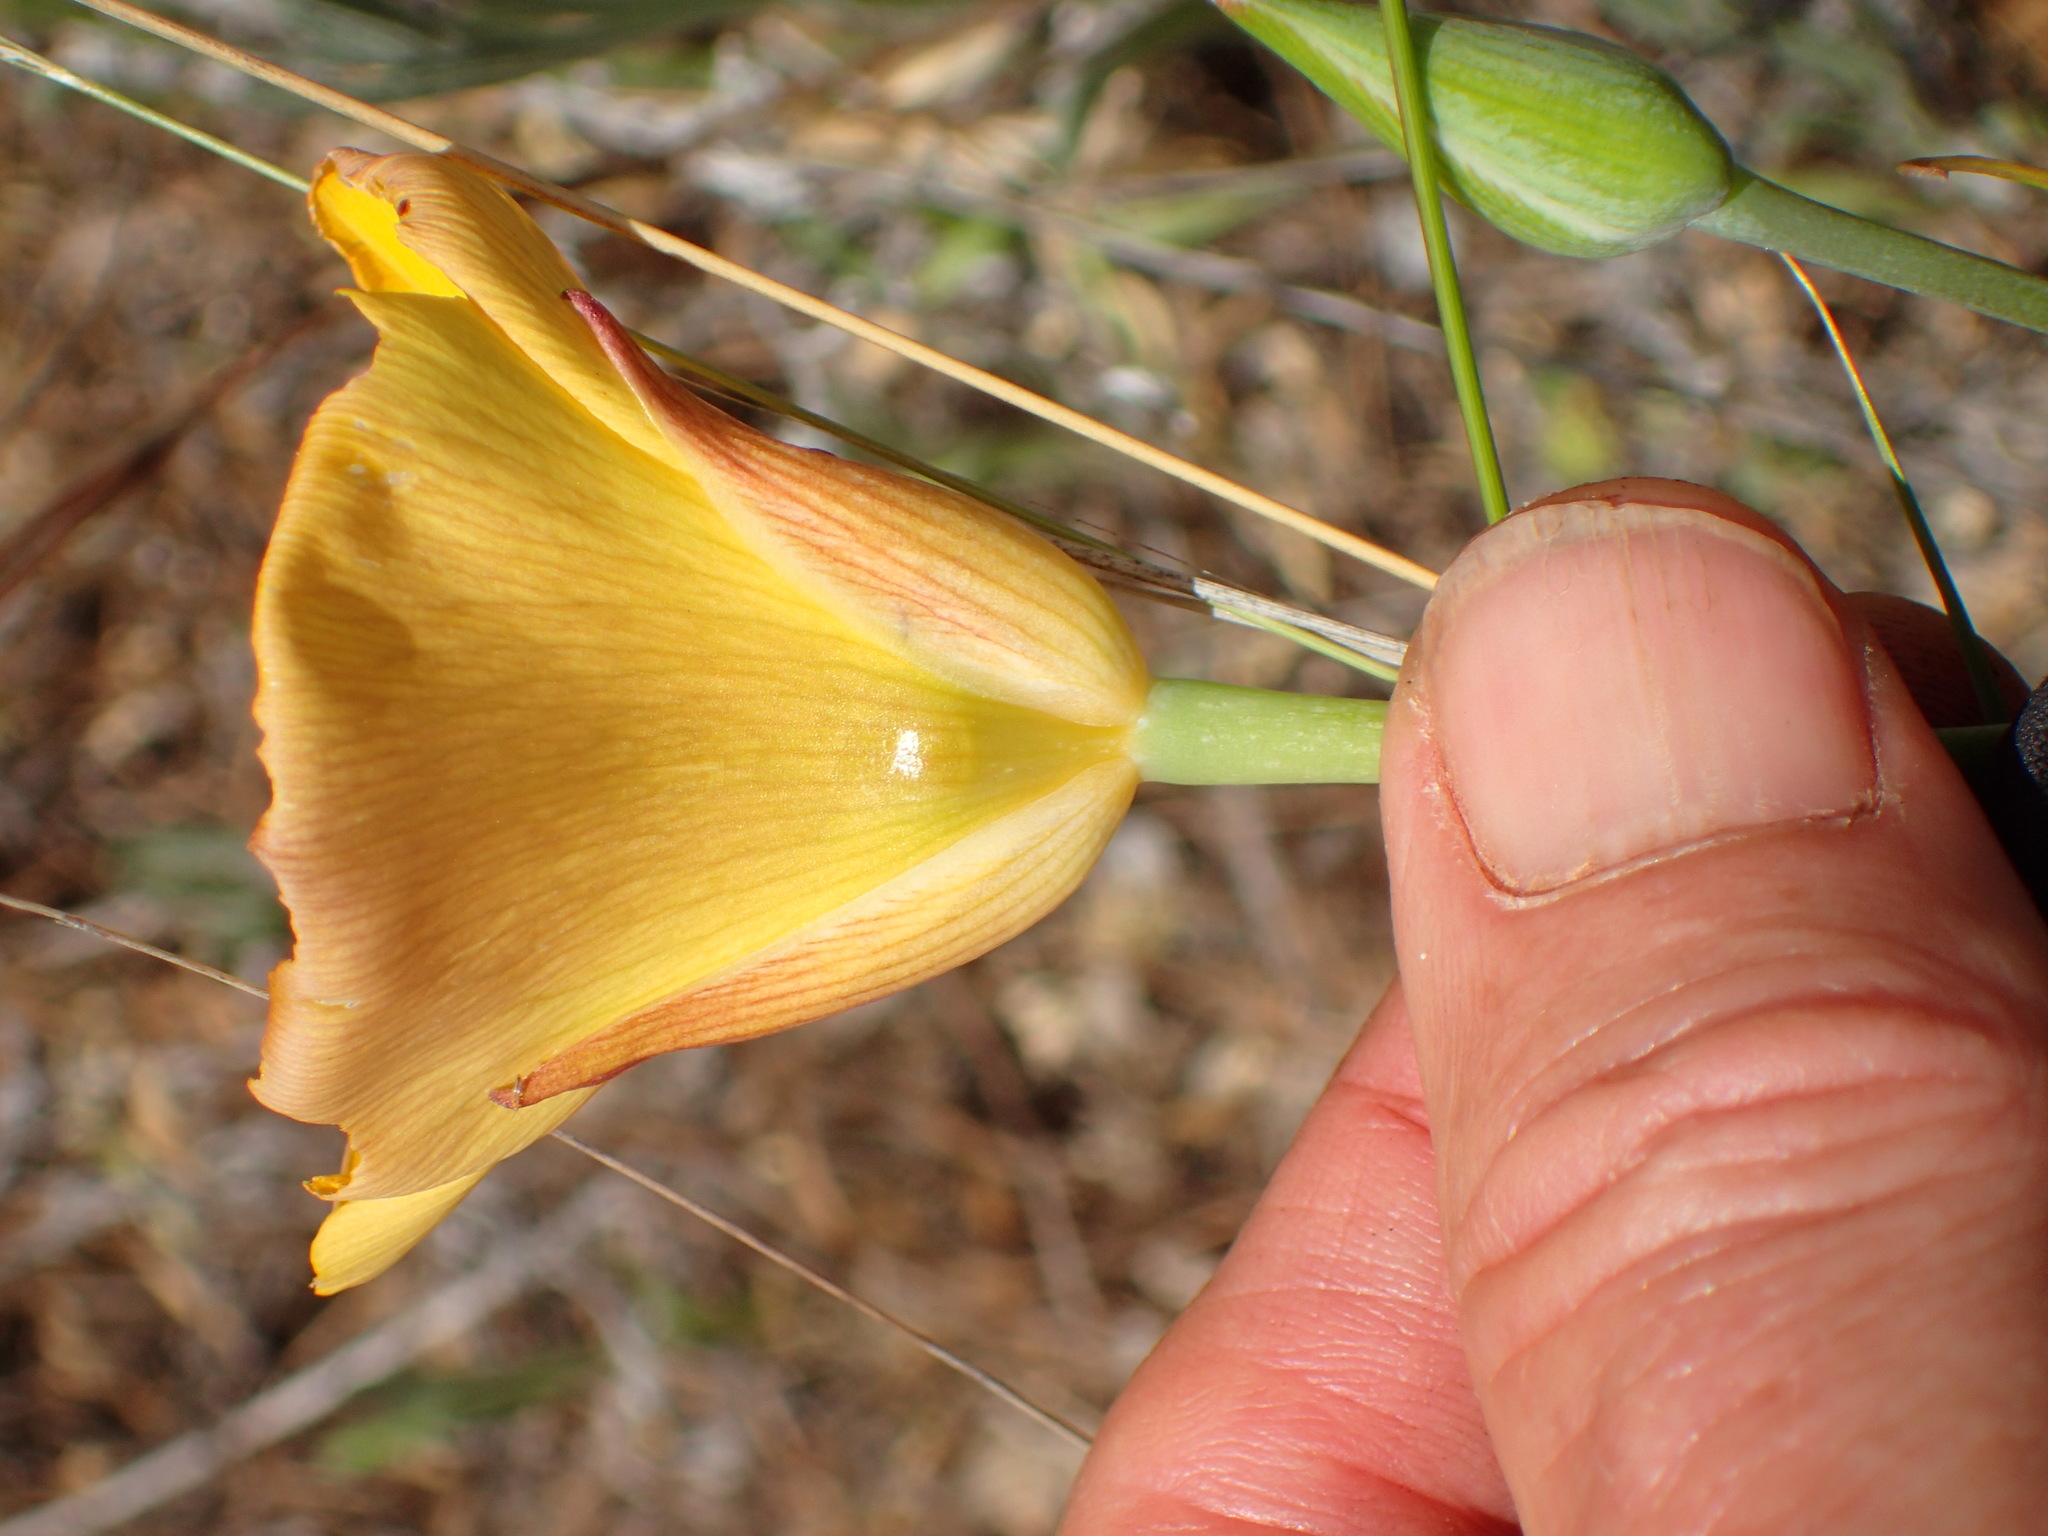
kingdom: Plantae
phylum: Tracheophyta
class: Liliopsida
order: Liliales
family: Liliaceae
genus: Calochortus
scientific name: Calochortus clavatus
